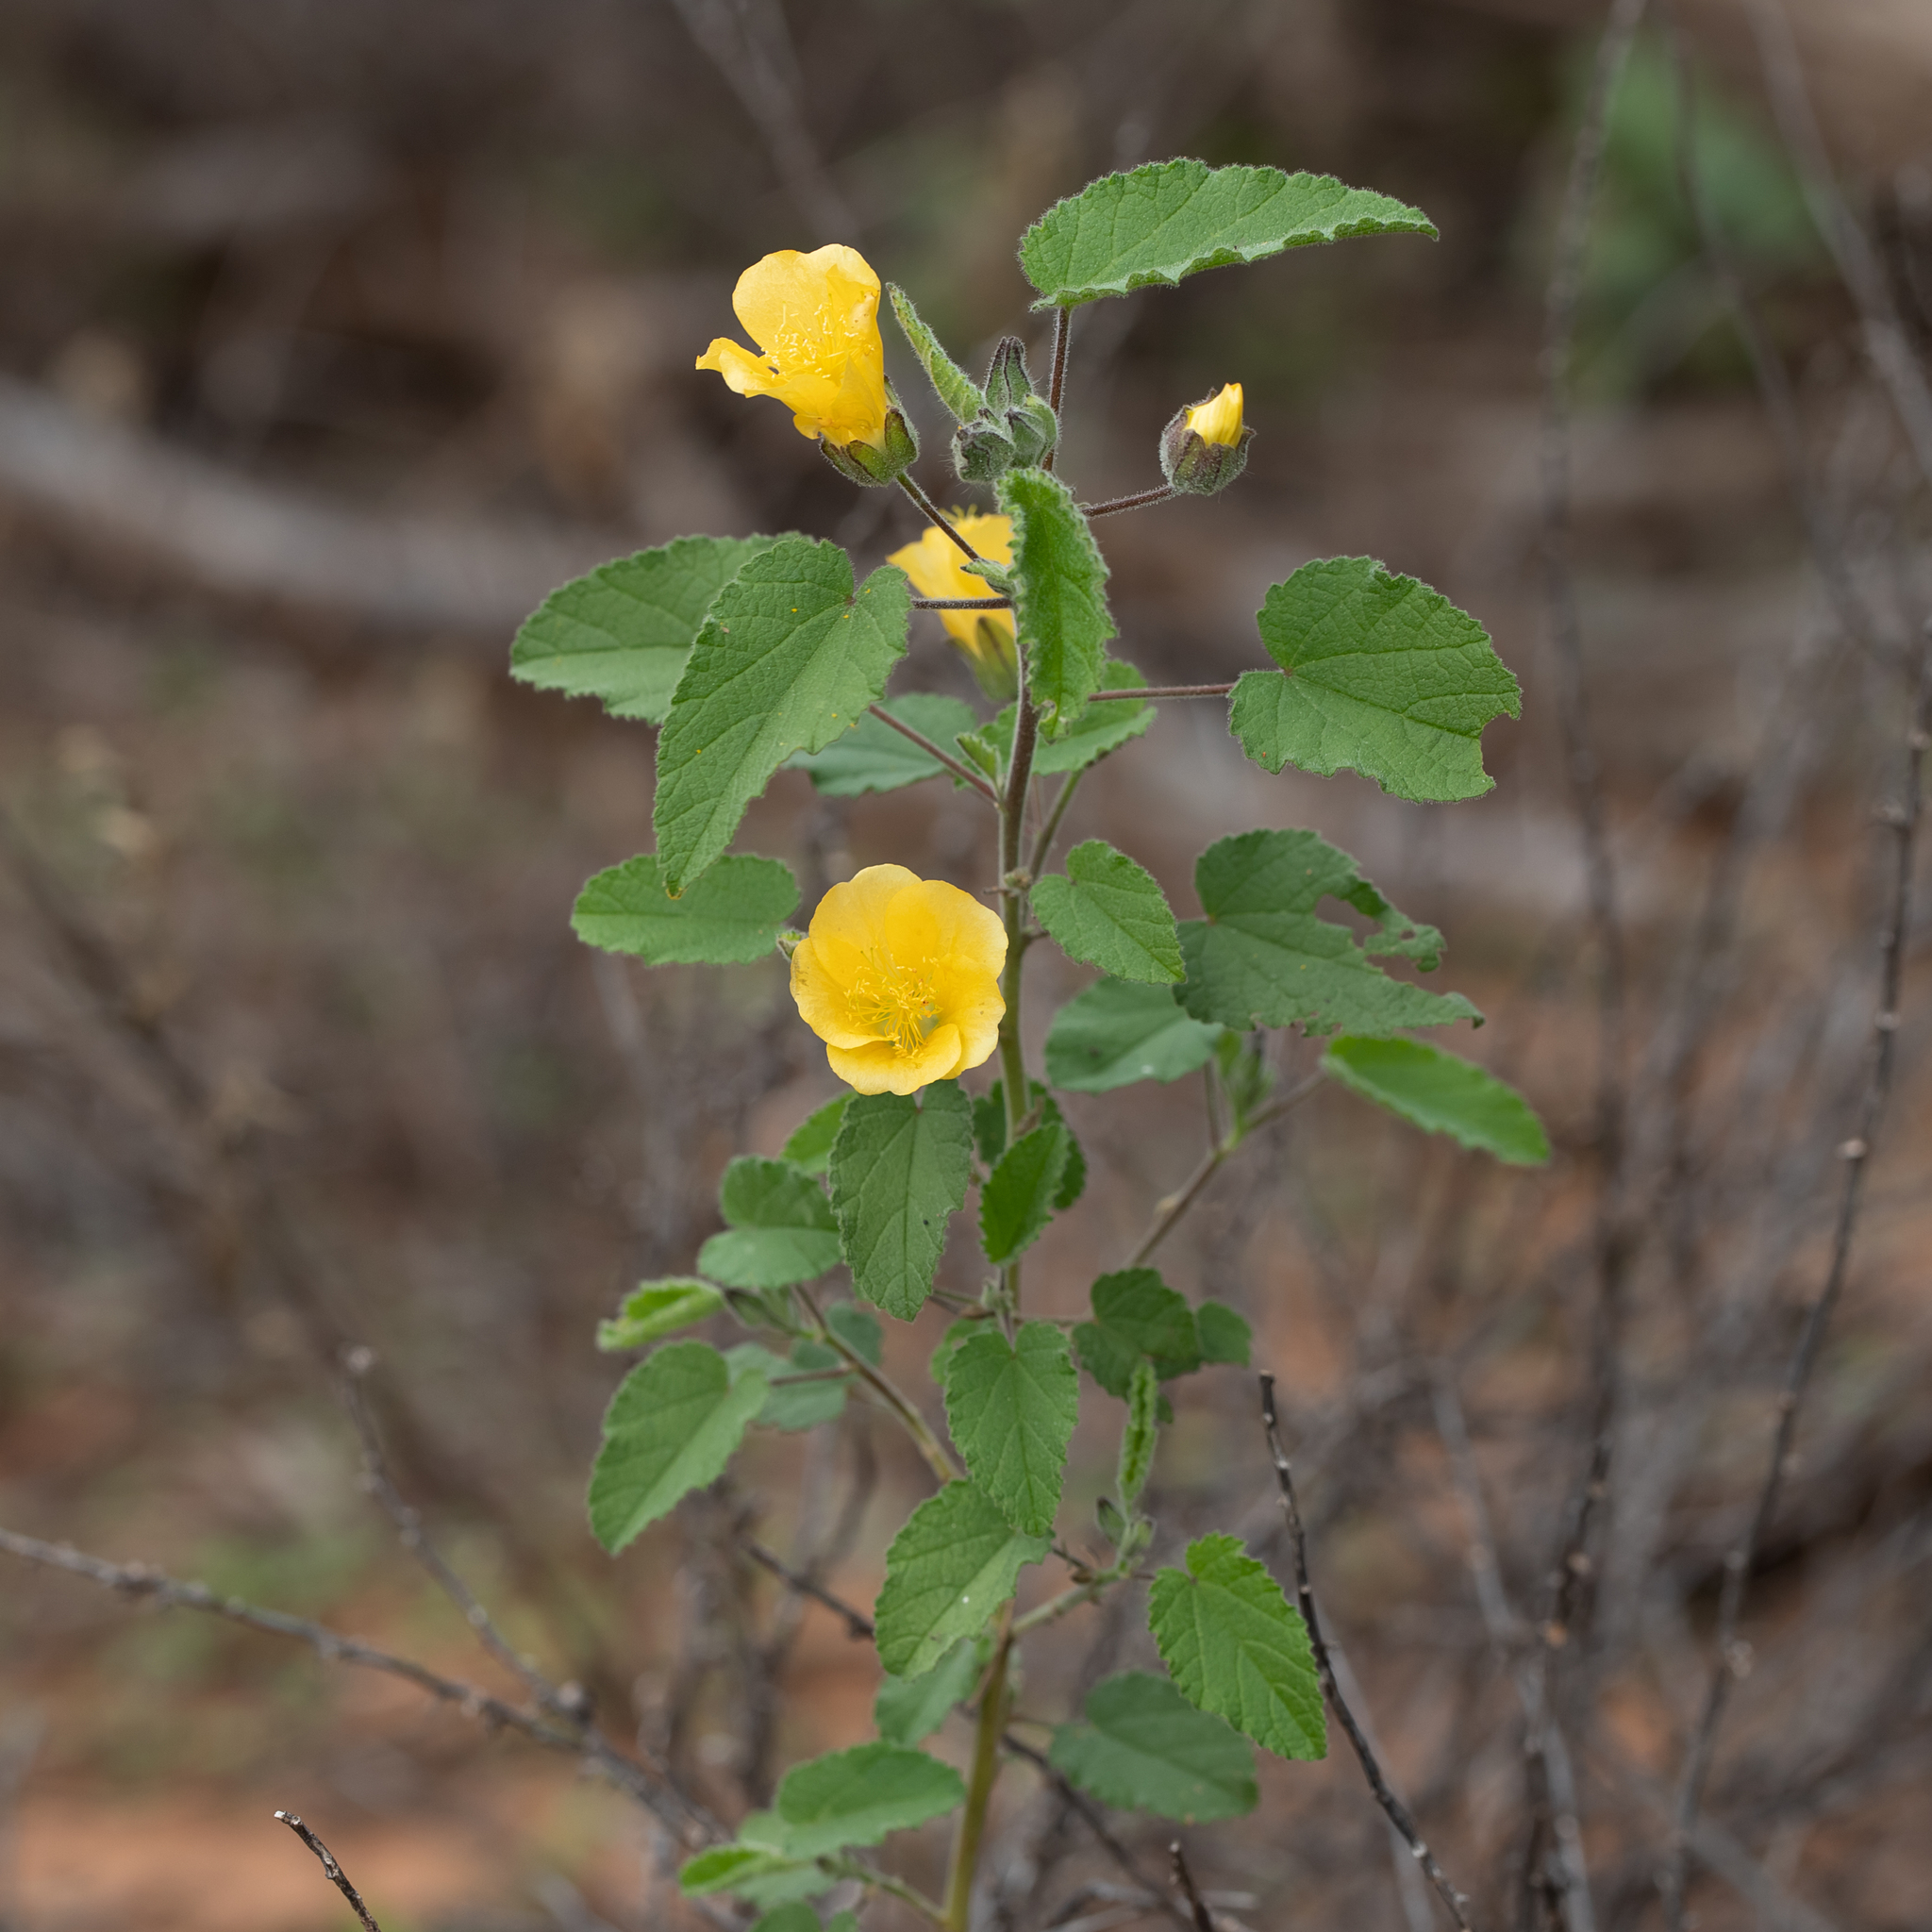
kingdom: Plantae
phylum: Tracheophyta
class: Magnoliopsida
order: Malvales
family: Malvaceae
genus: Abutilon
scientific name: Abutilon fraseri
